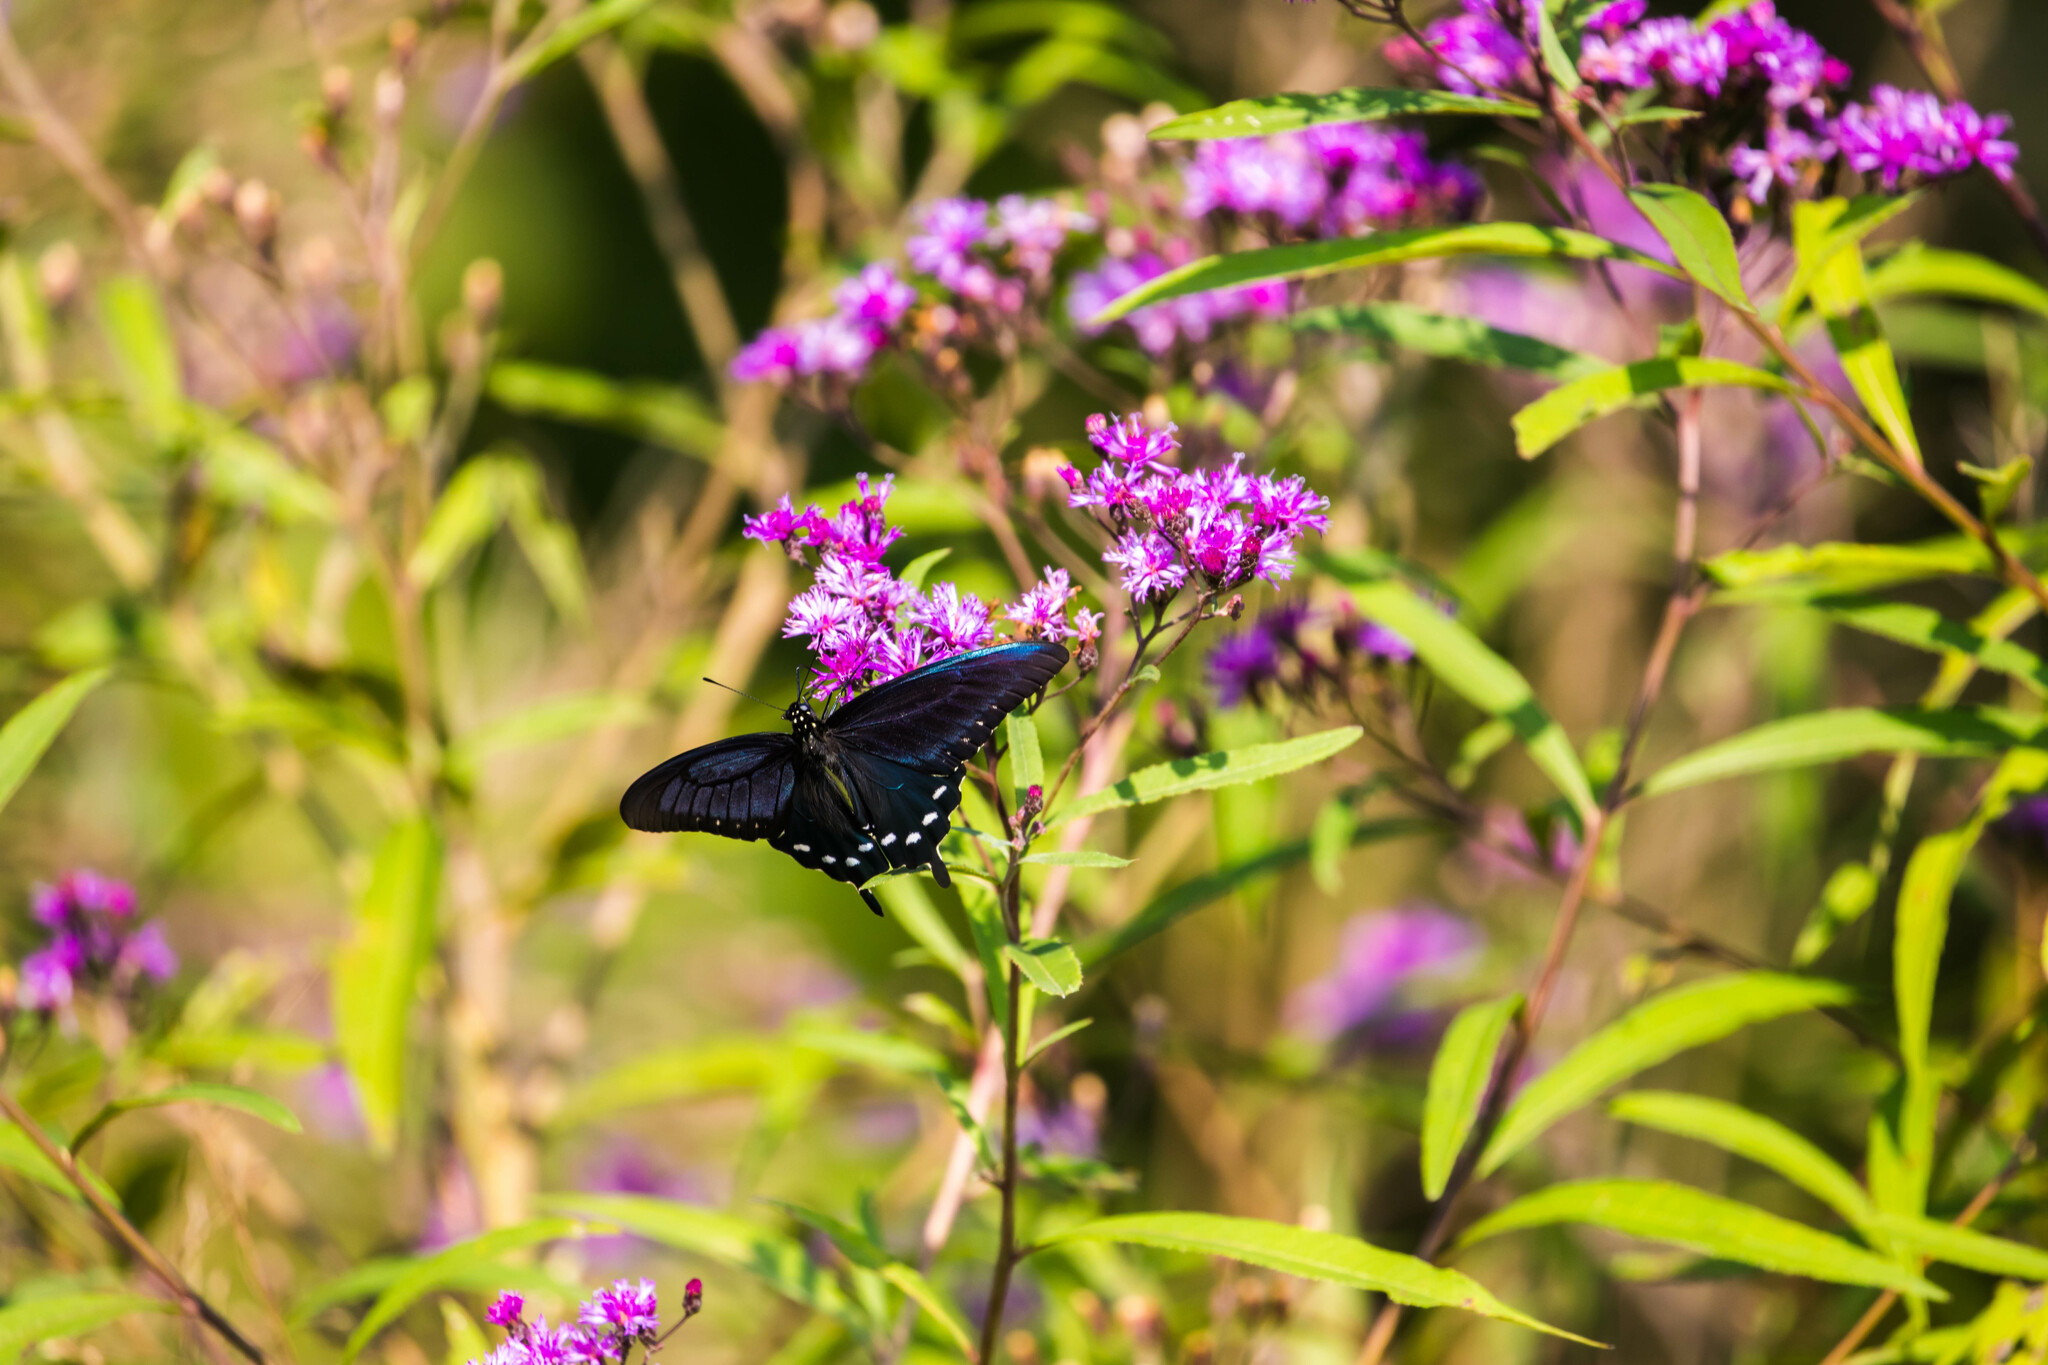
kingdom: Animalia
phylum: Arthropoda
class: Insecta
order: Lepidoptera
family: Papilionidae
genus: Battus
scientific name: Battus philenor
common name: Pipevine swallowtail
